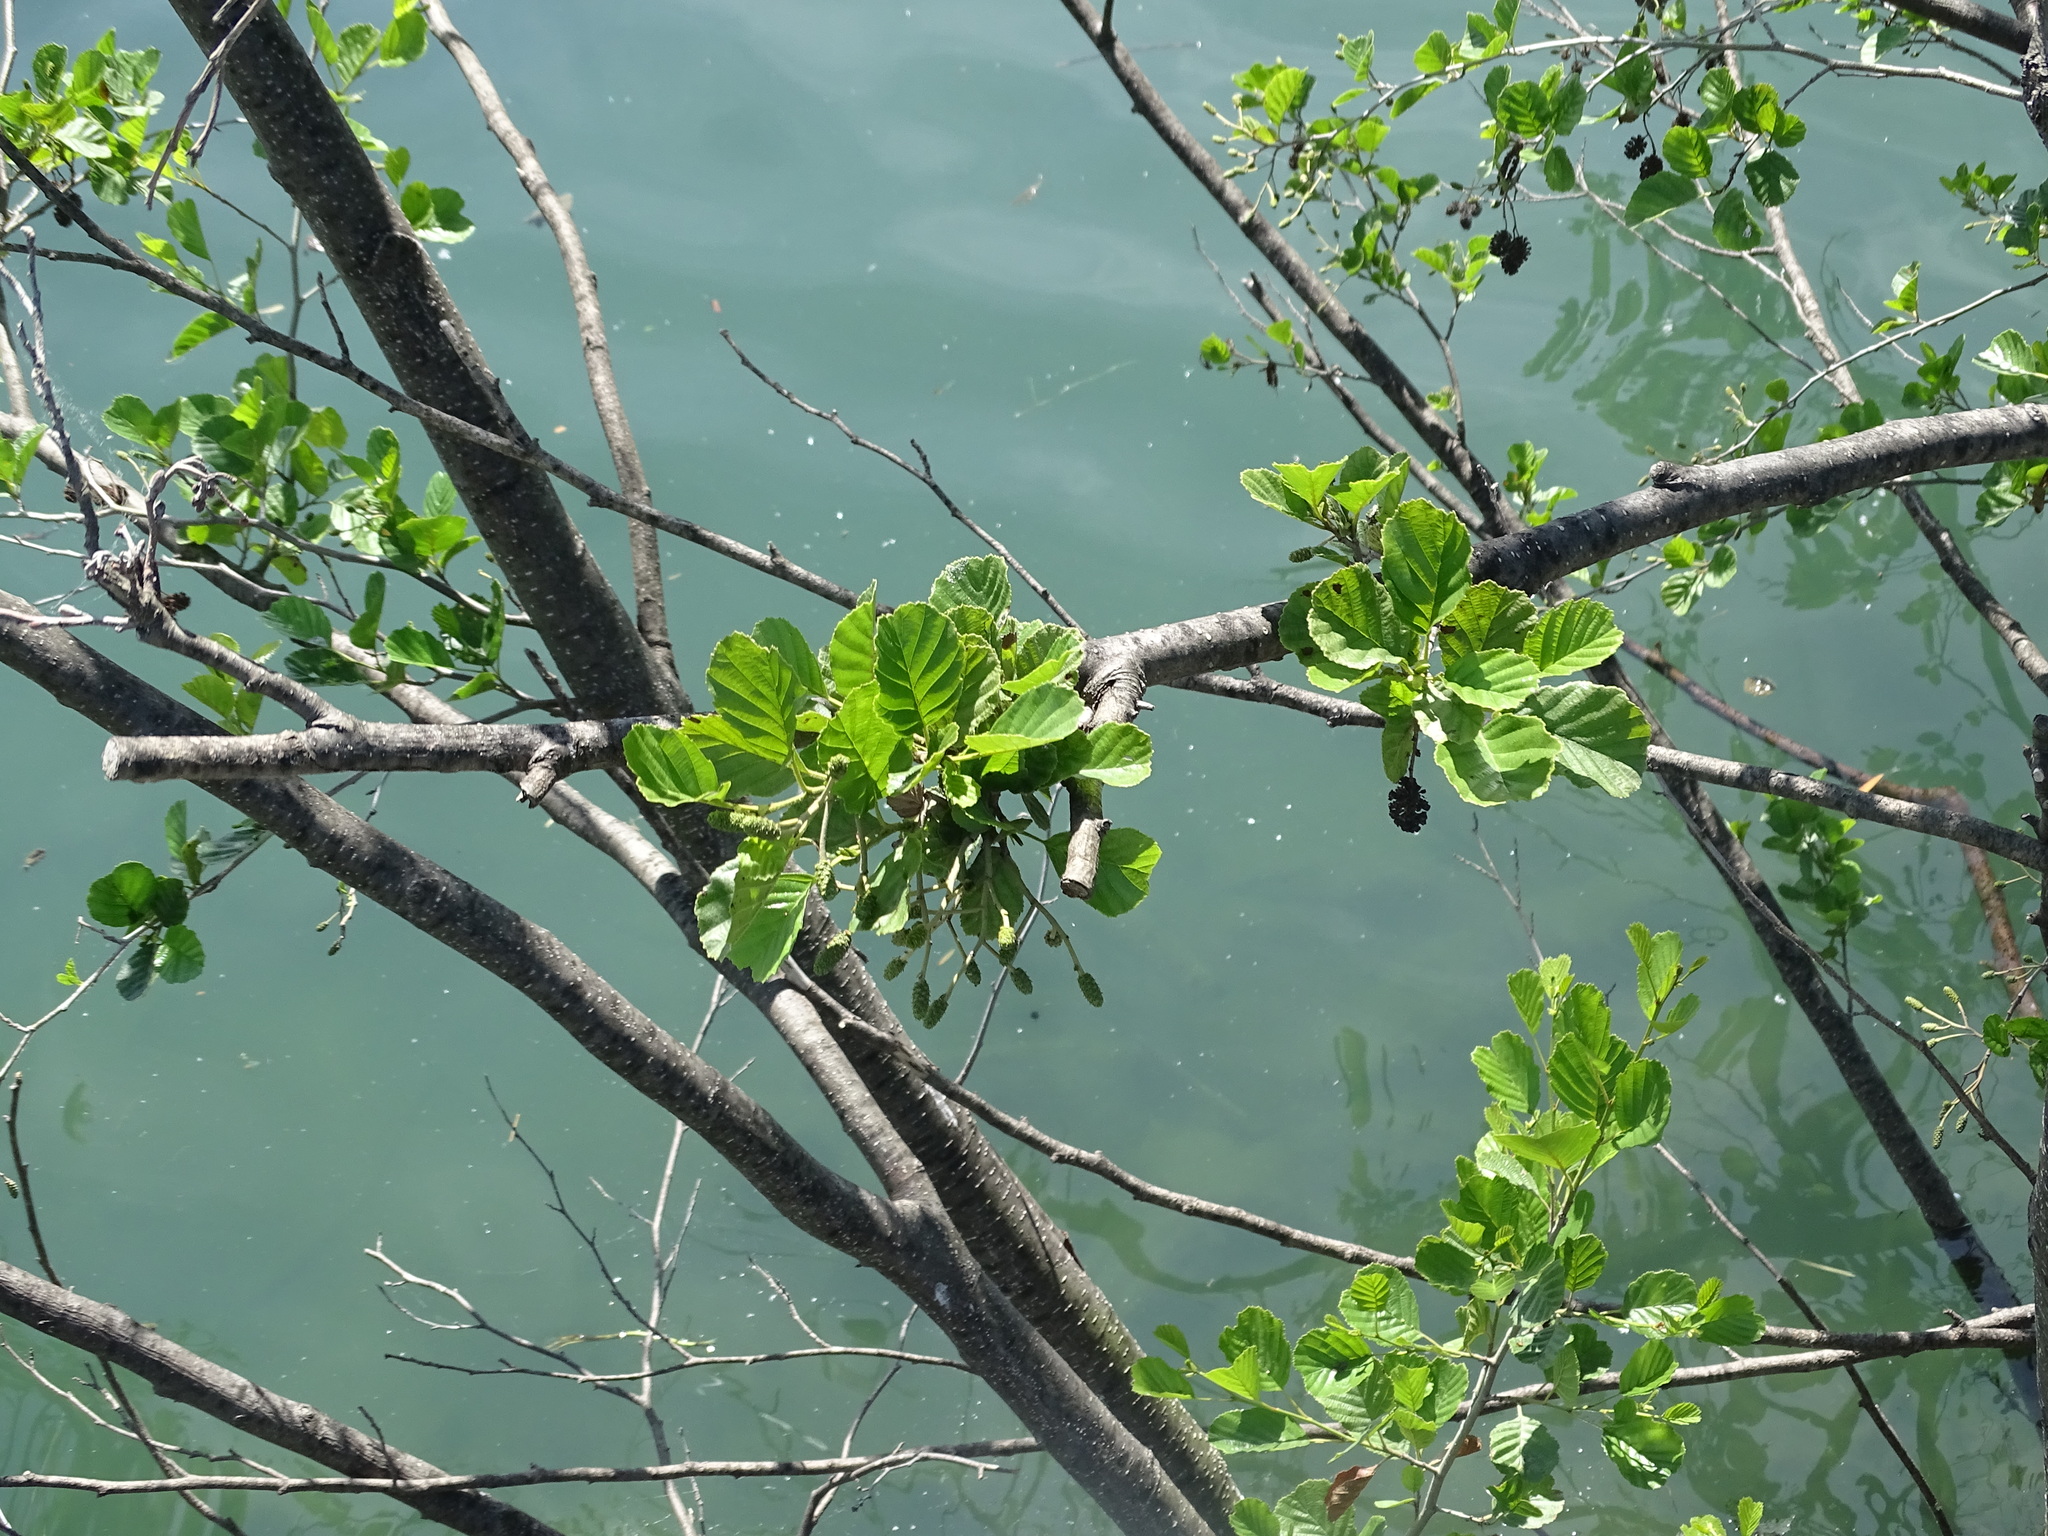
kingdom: Plantae
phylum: Tracheophyta
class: Magnoliopsida
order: Fagales
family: Betulaceae
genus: Alnus
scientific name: Alnus glutinosa
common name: Black alder
